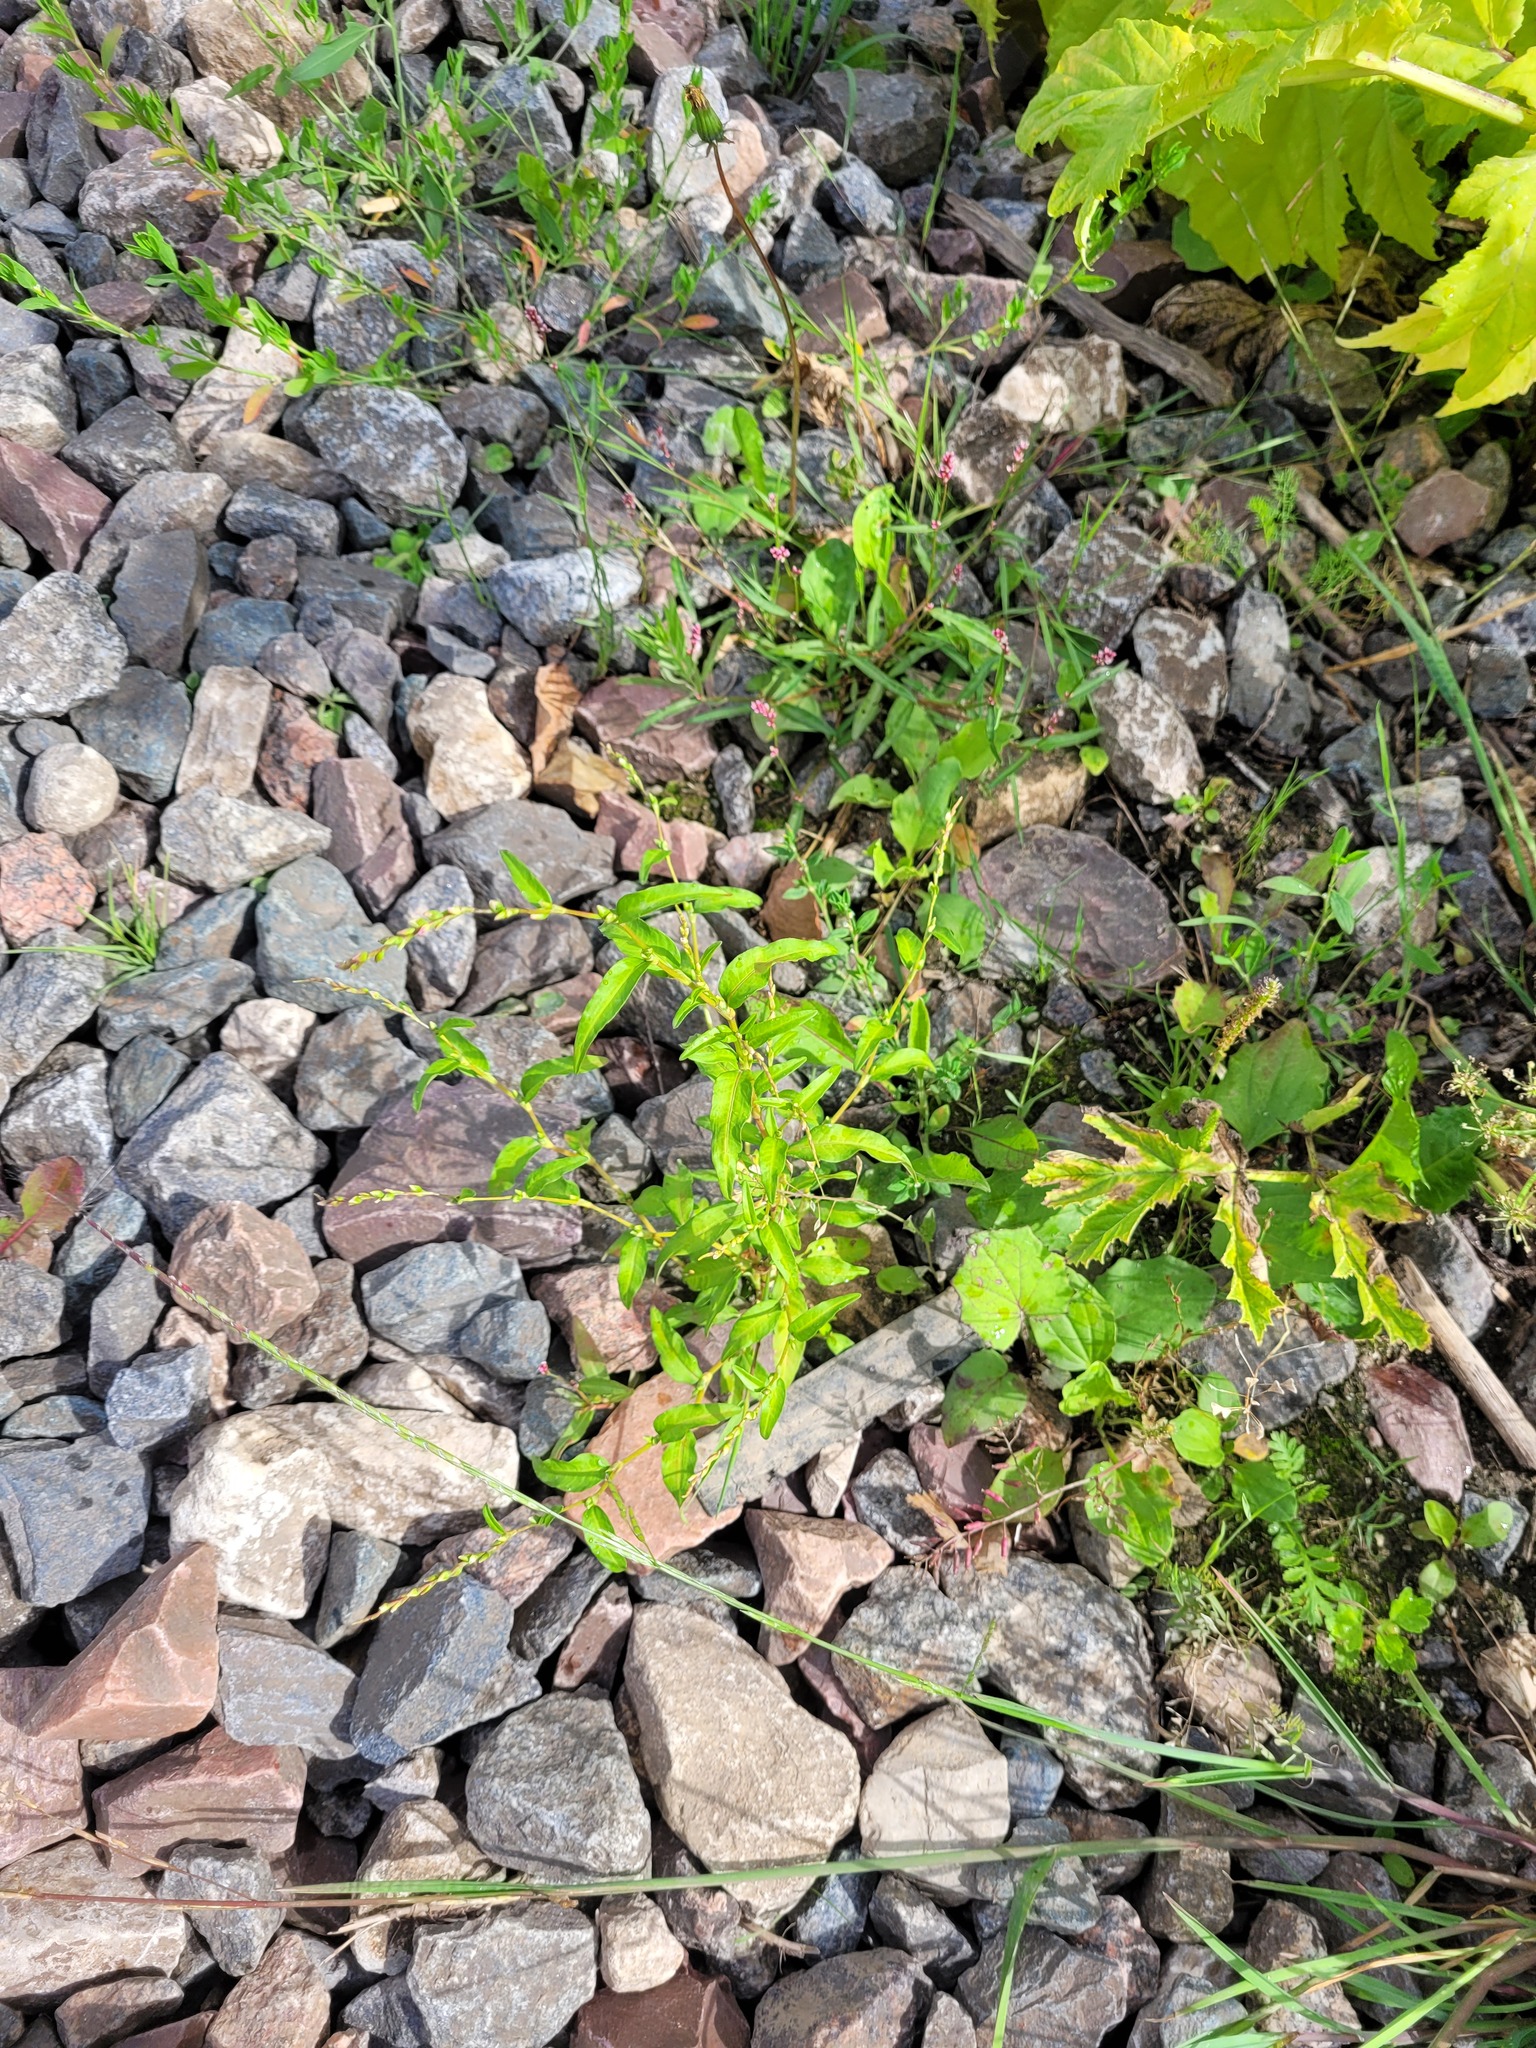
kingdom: Plantae
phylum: Tracheophyta
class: Magnoliopsida
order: Caryophyllales
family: Polygonaceae
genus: Persicaria
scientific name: Persicaria hydropiper
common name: Water-pepper
